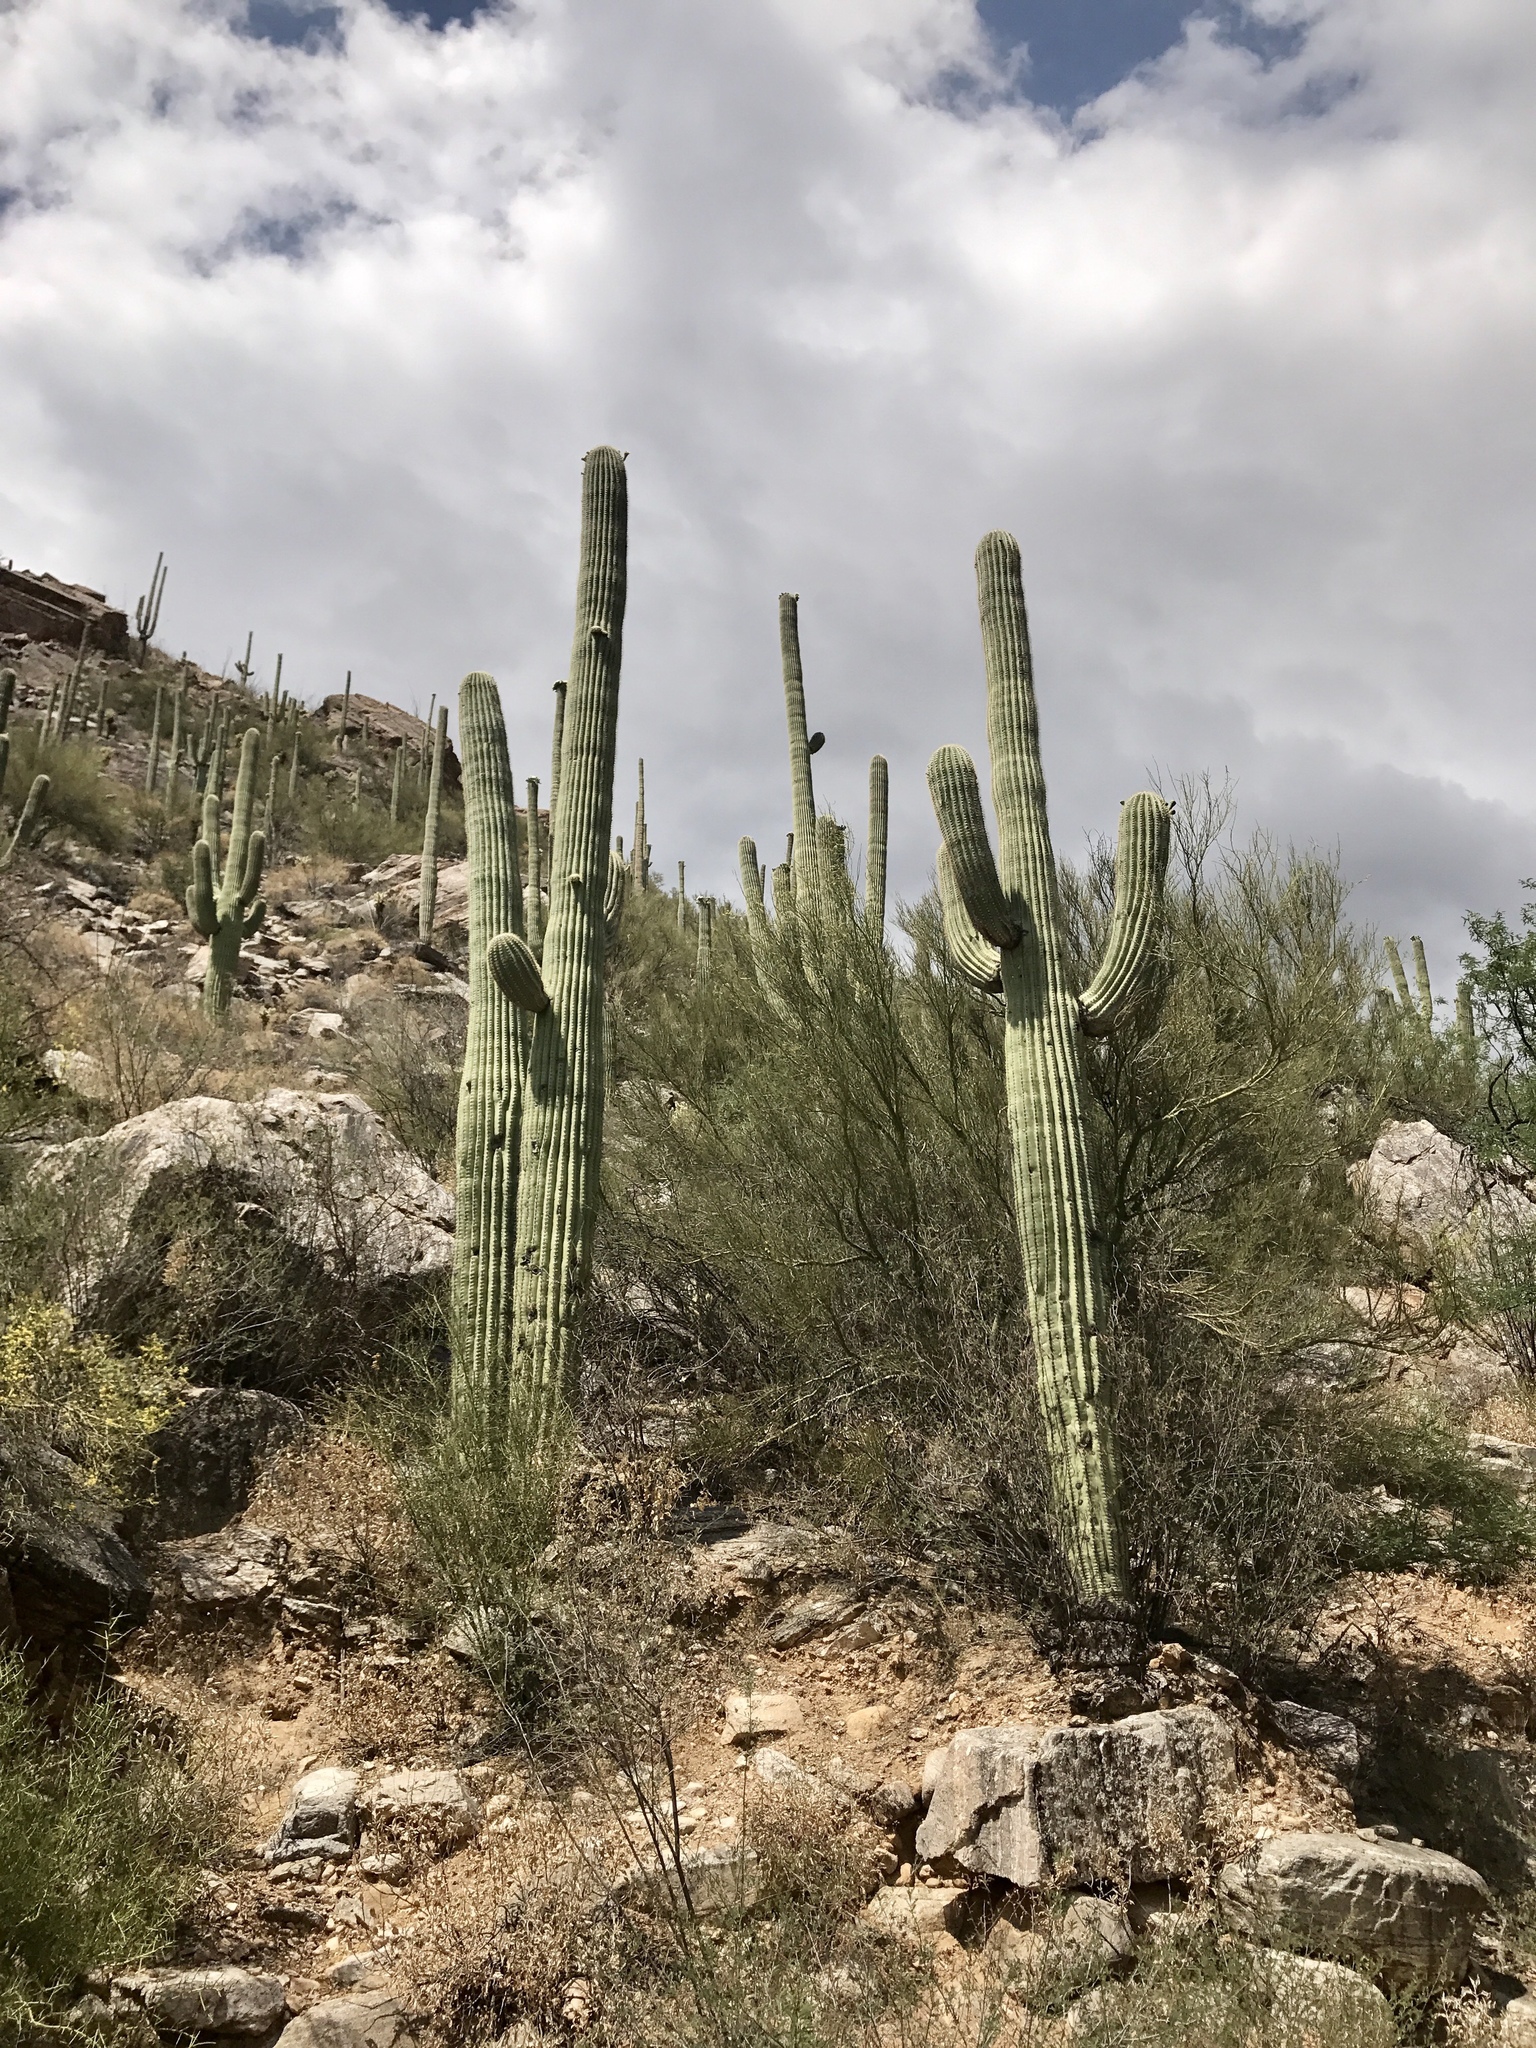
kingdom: Plantae
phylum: Tracheophyta
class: Magnoliopsida
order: Caryophyllales
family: Cactaceae
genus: Carnegiea
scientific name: Carnegiea gigantea
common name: Saguaro
